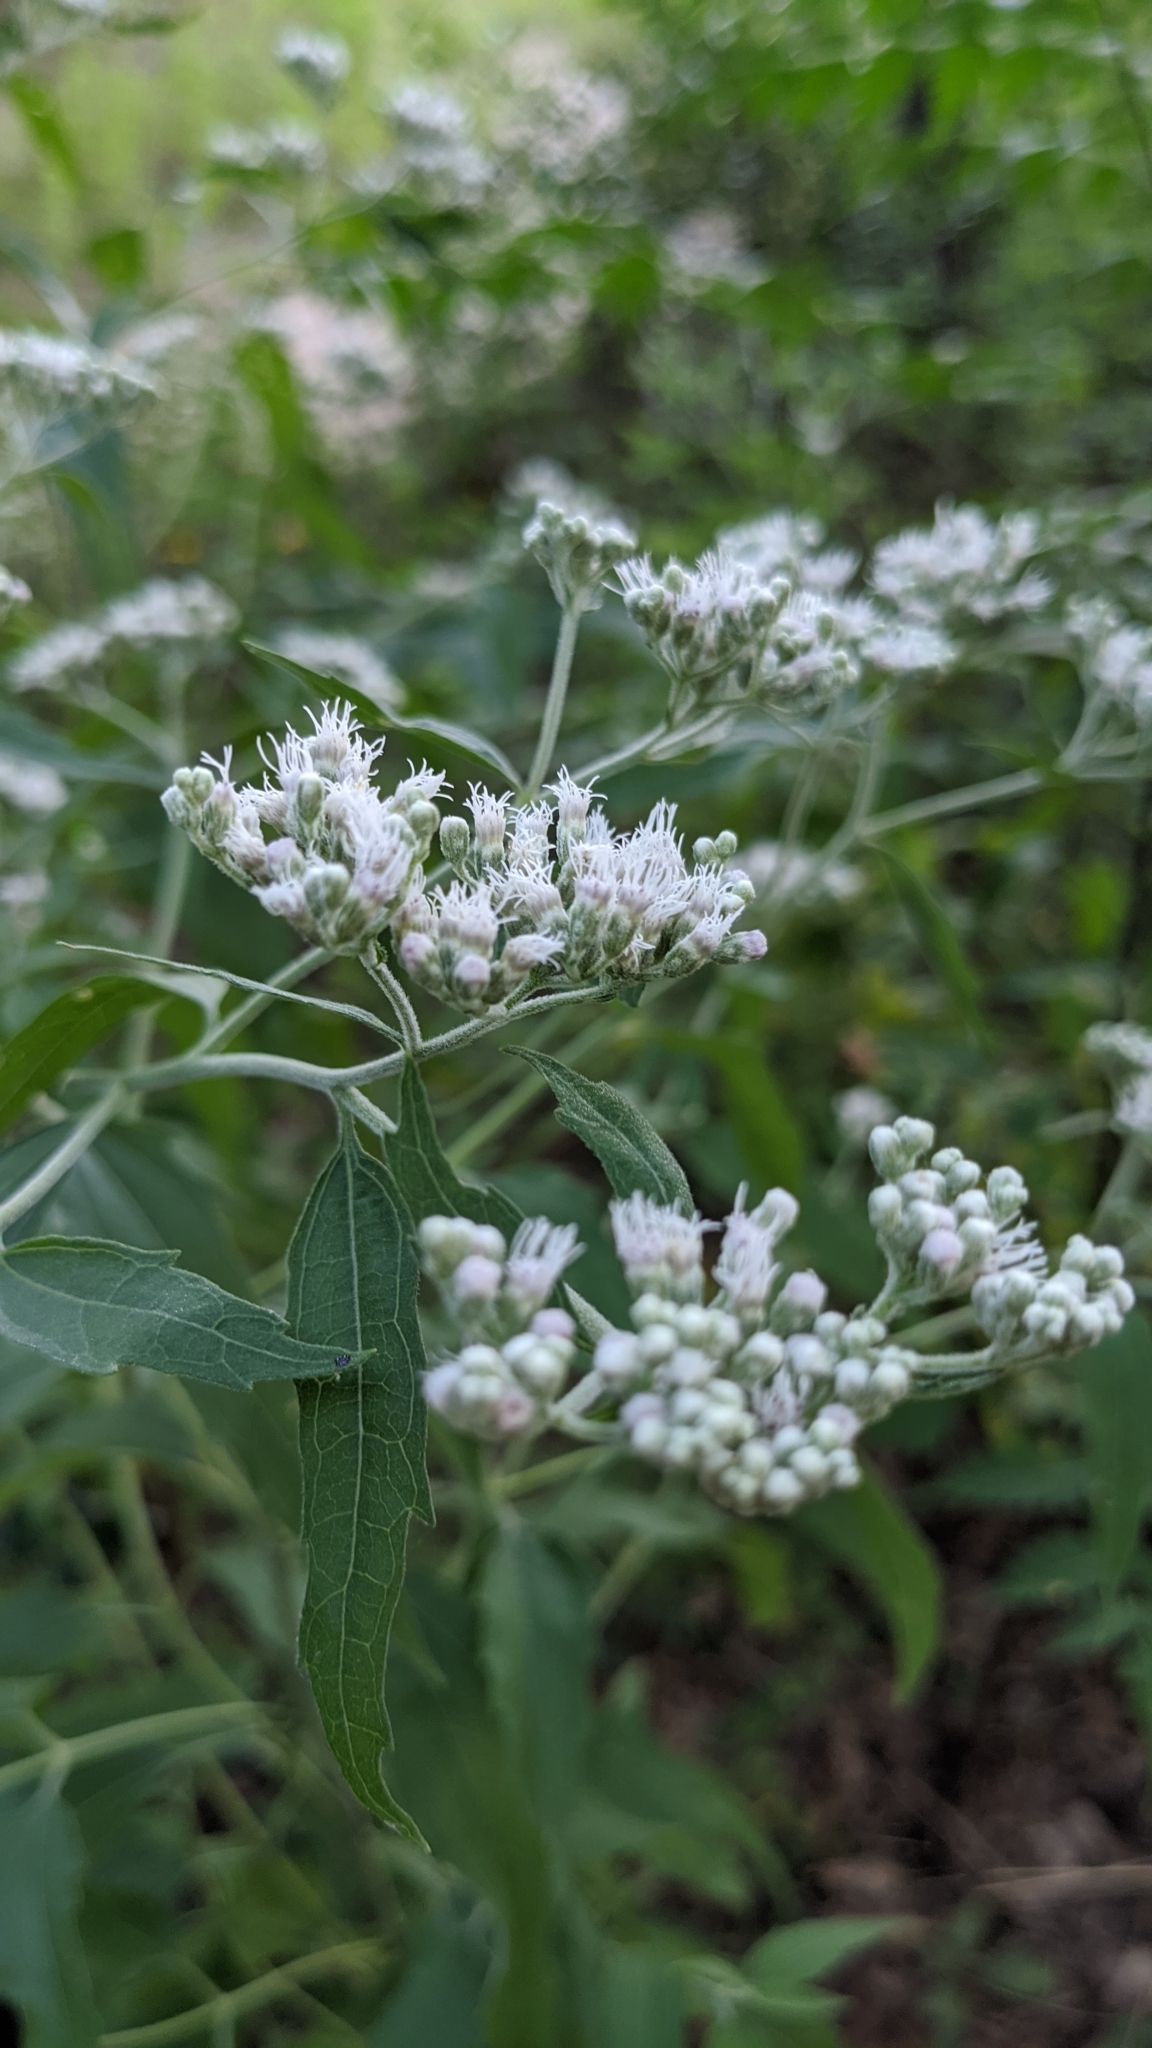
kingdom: Plantae
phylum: Tracheophyta
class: Magnoliopsida
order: Asterales
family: Asteraceae
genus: Eupatorium
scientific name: Eupatorium serotinum
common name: Late boneset
